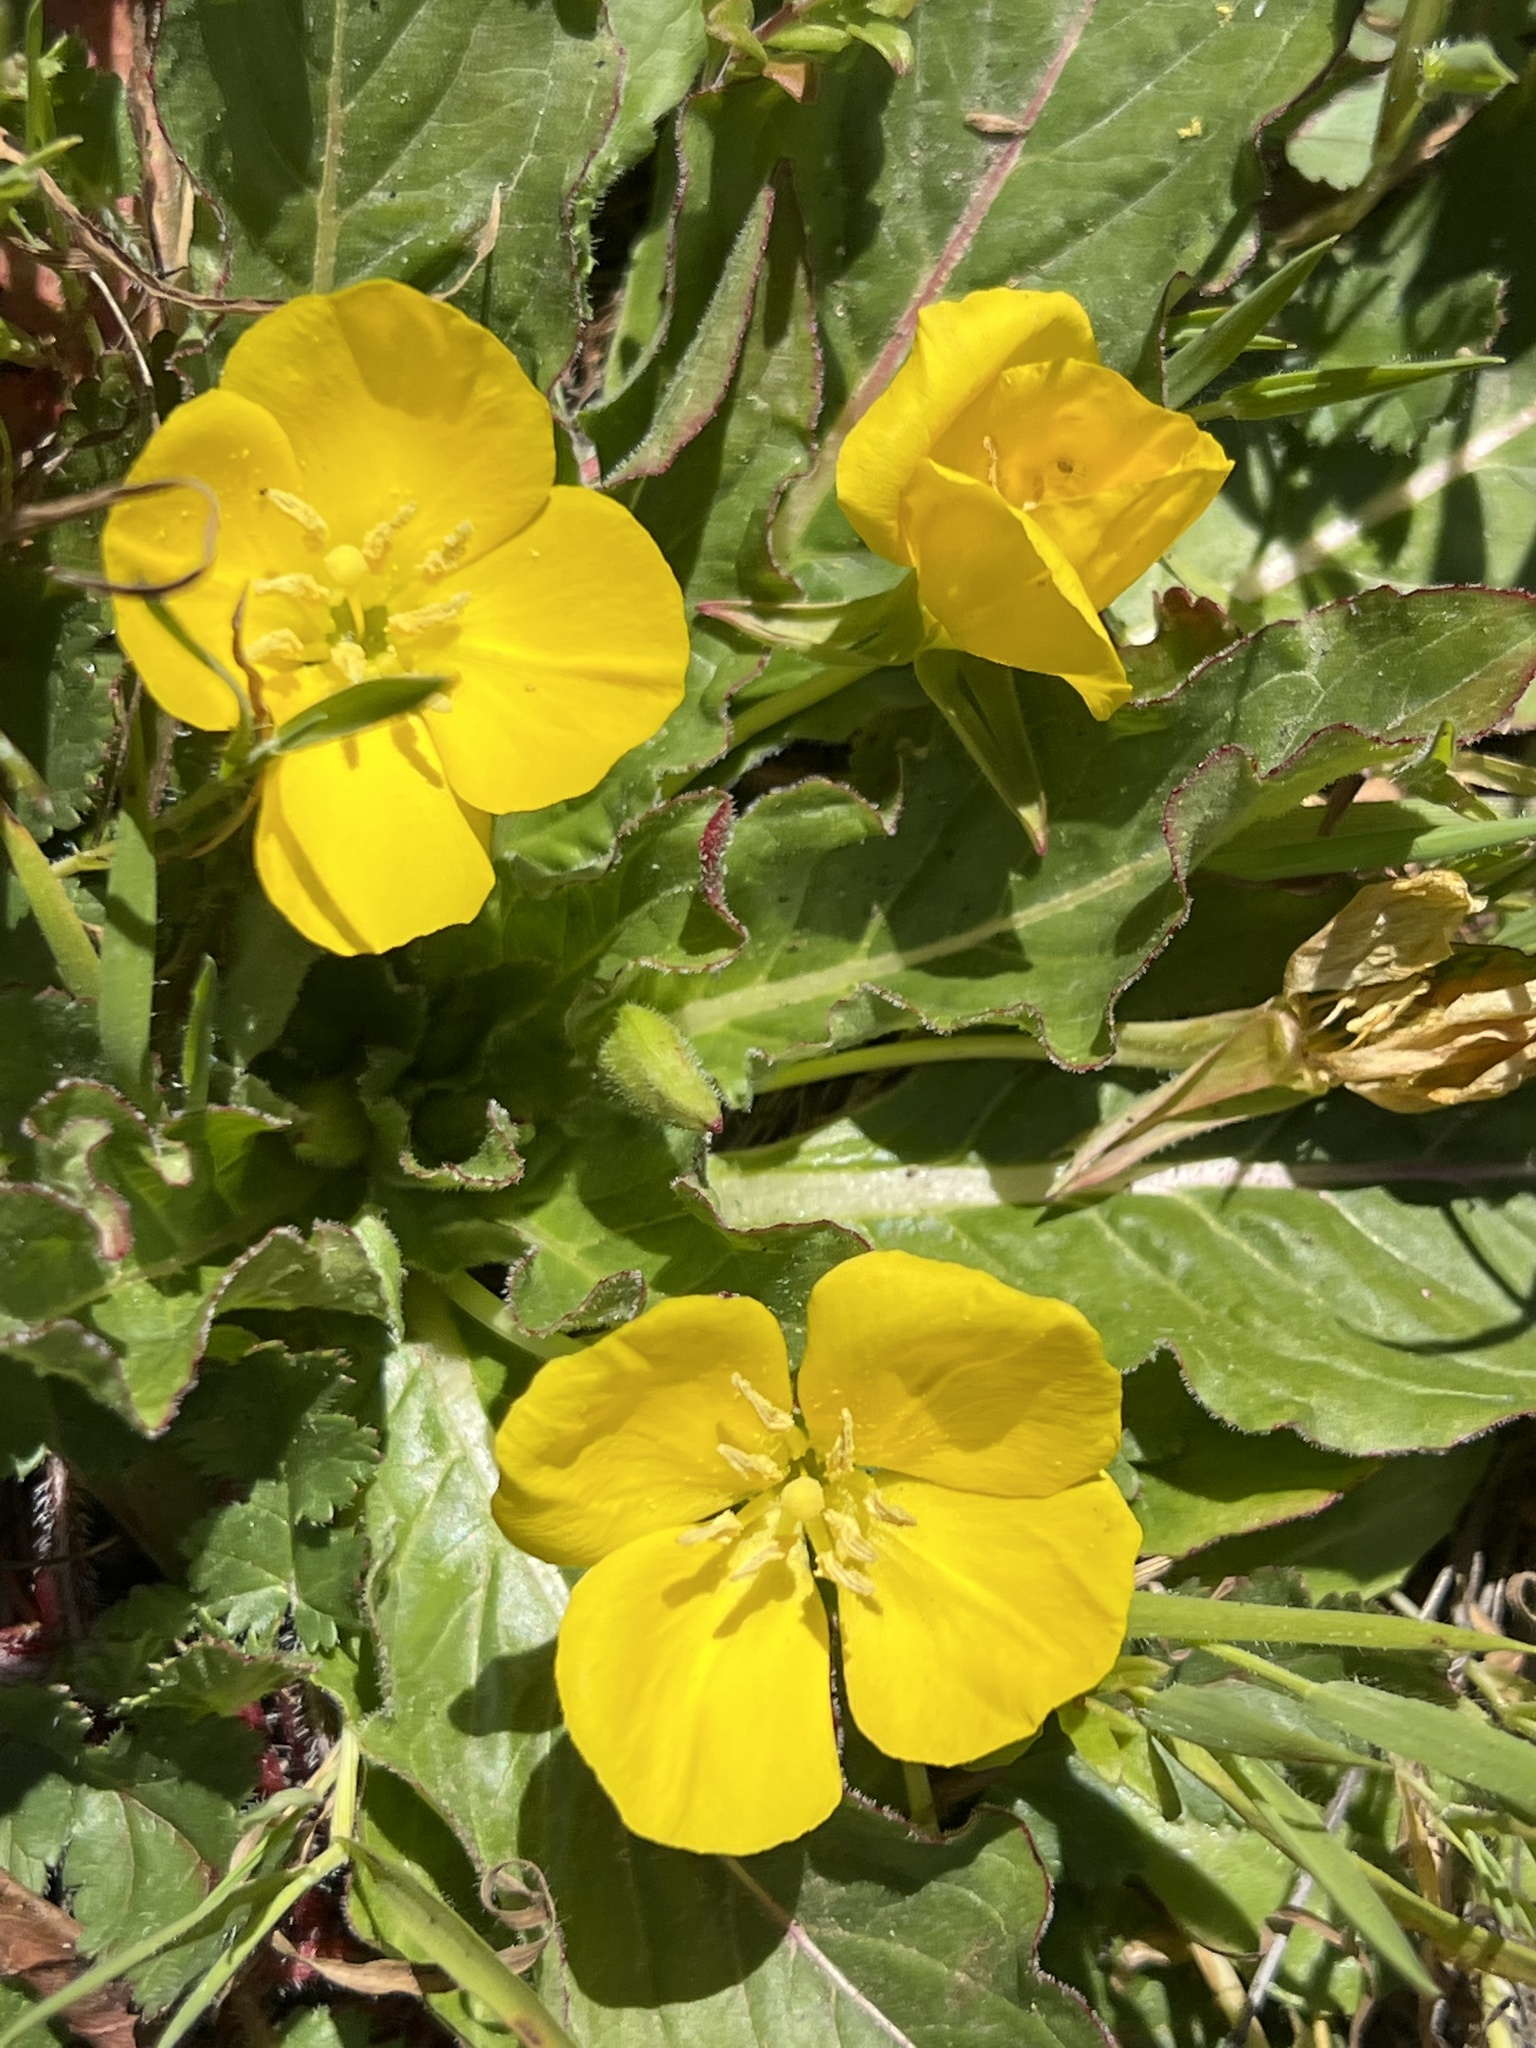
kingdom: Plantae
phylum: Tracheophyta
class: Magnoliopsida
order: Myrtales
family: Onagraceae
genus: Taraxia
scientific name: Taraxia ovata
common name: Goldeneggs
